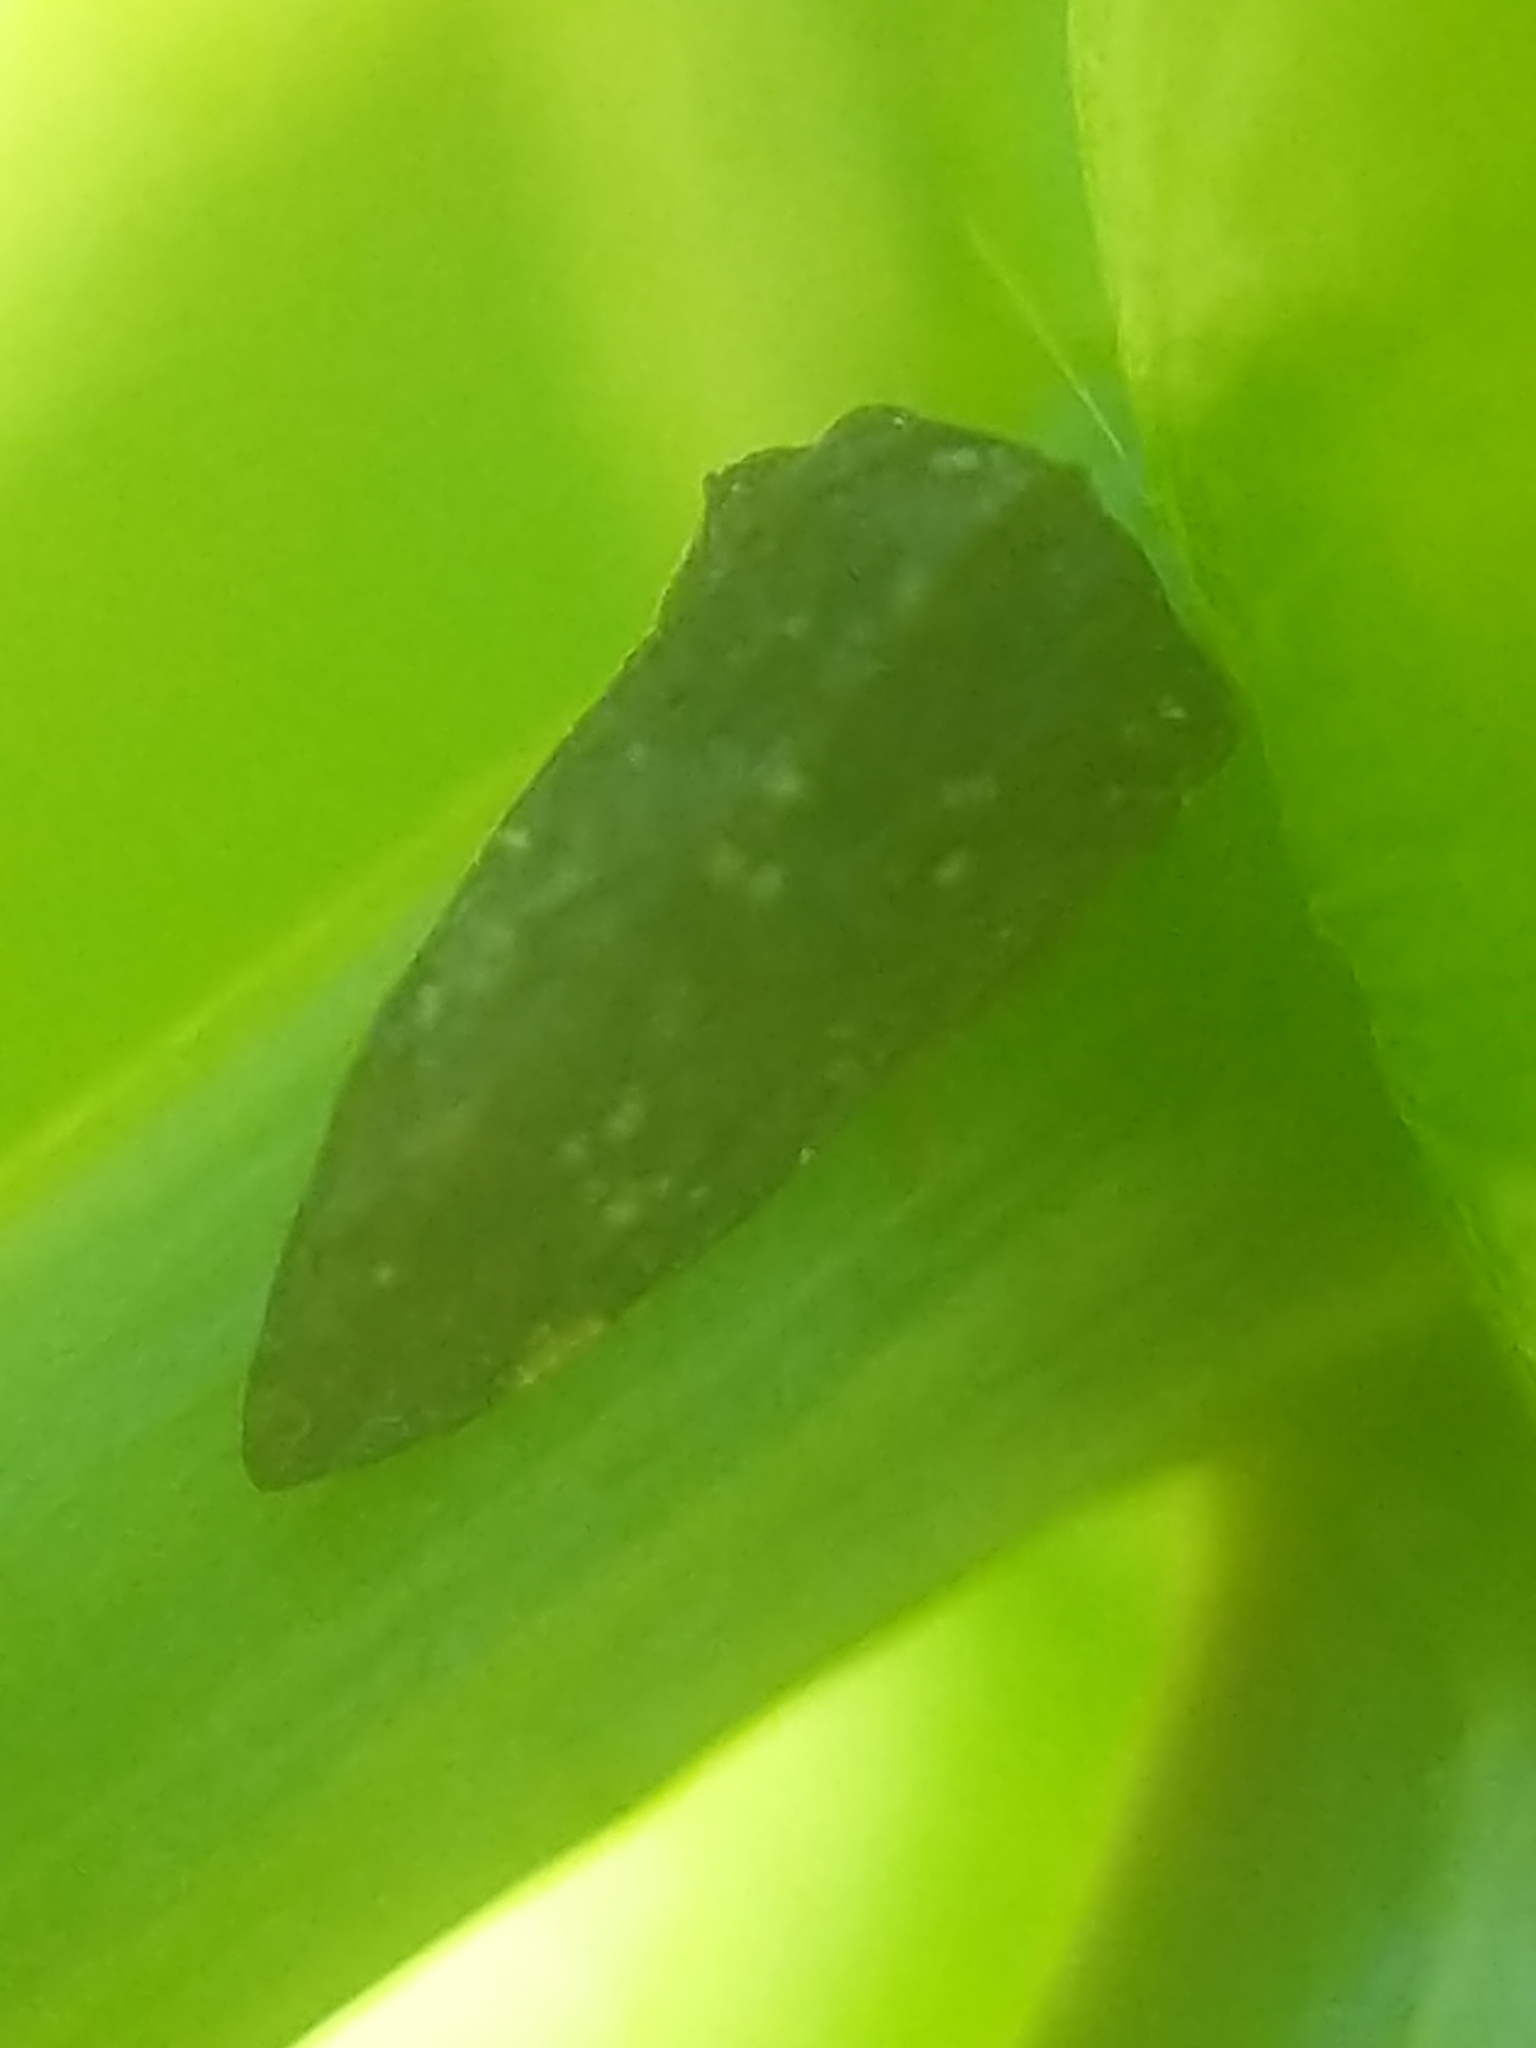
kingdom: Animalia
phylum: Arthropoda
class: Insecta
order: Hemiptera
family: Membracidae
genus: Publilia
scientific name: Publilia reticulata
